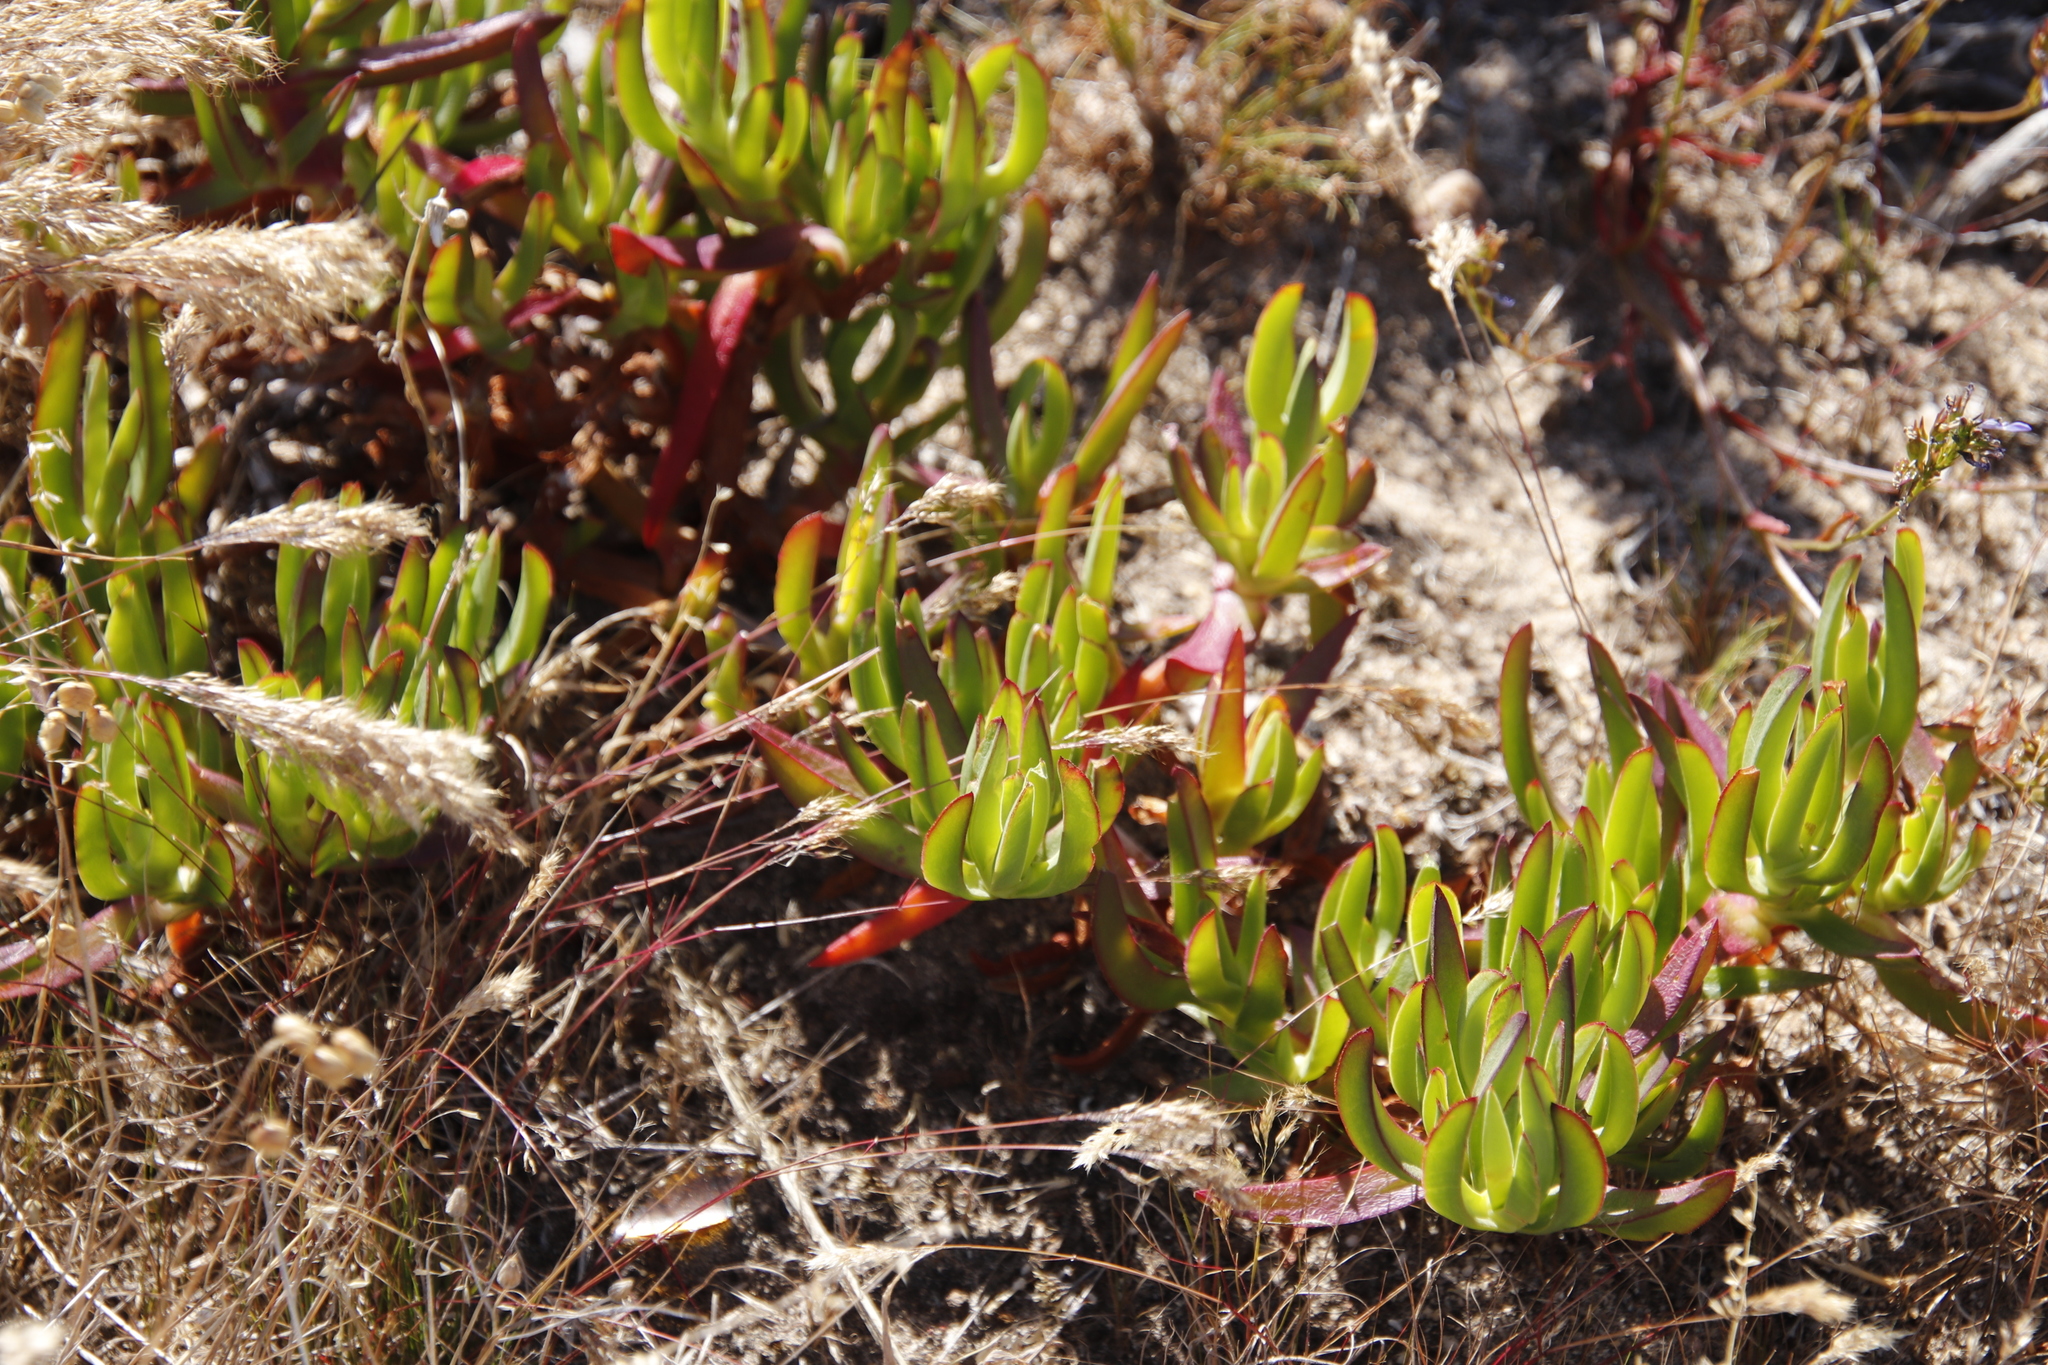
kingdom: Plantae
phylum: Tracheophyta
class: Magnoliopsida
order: Caryophyllales
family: Aizoaceae
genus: Carpobrotus
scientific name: Carpobrotus edulis
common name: Hottentot-fig
